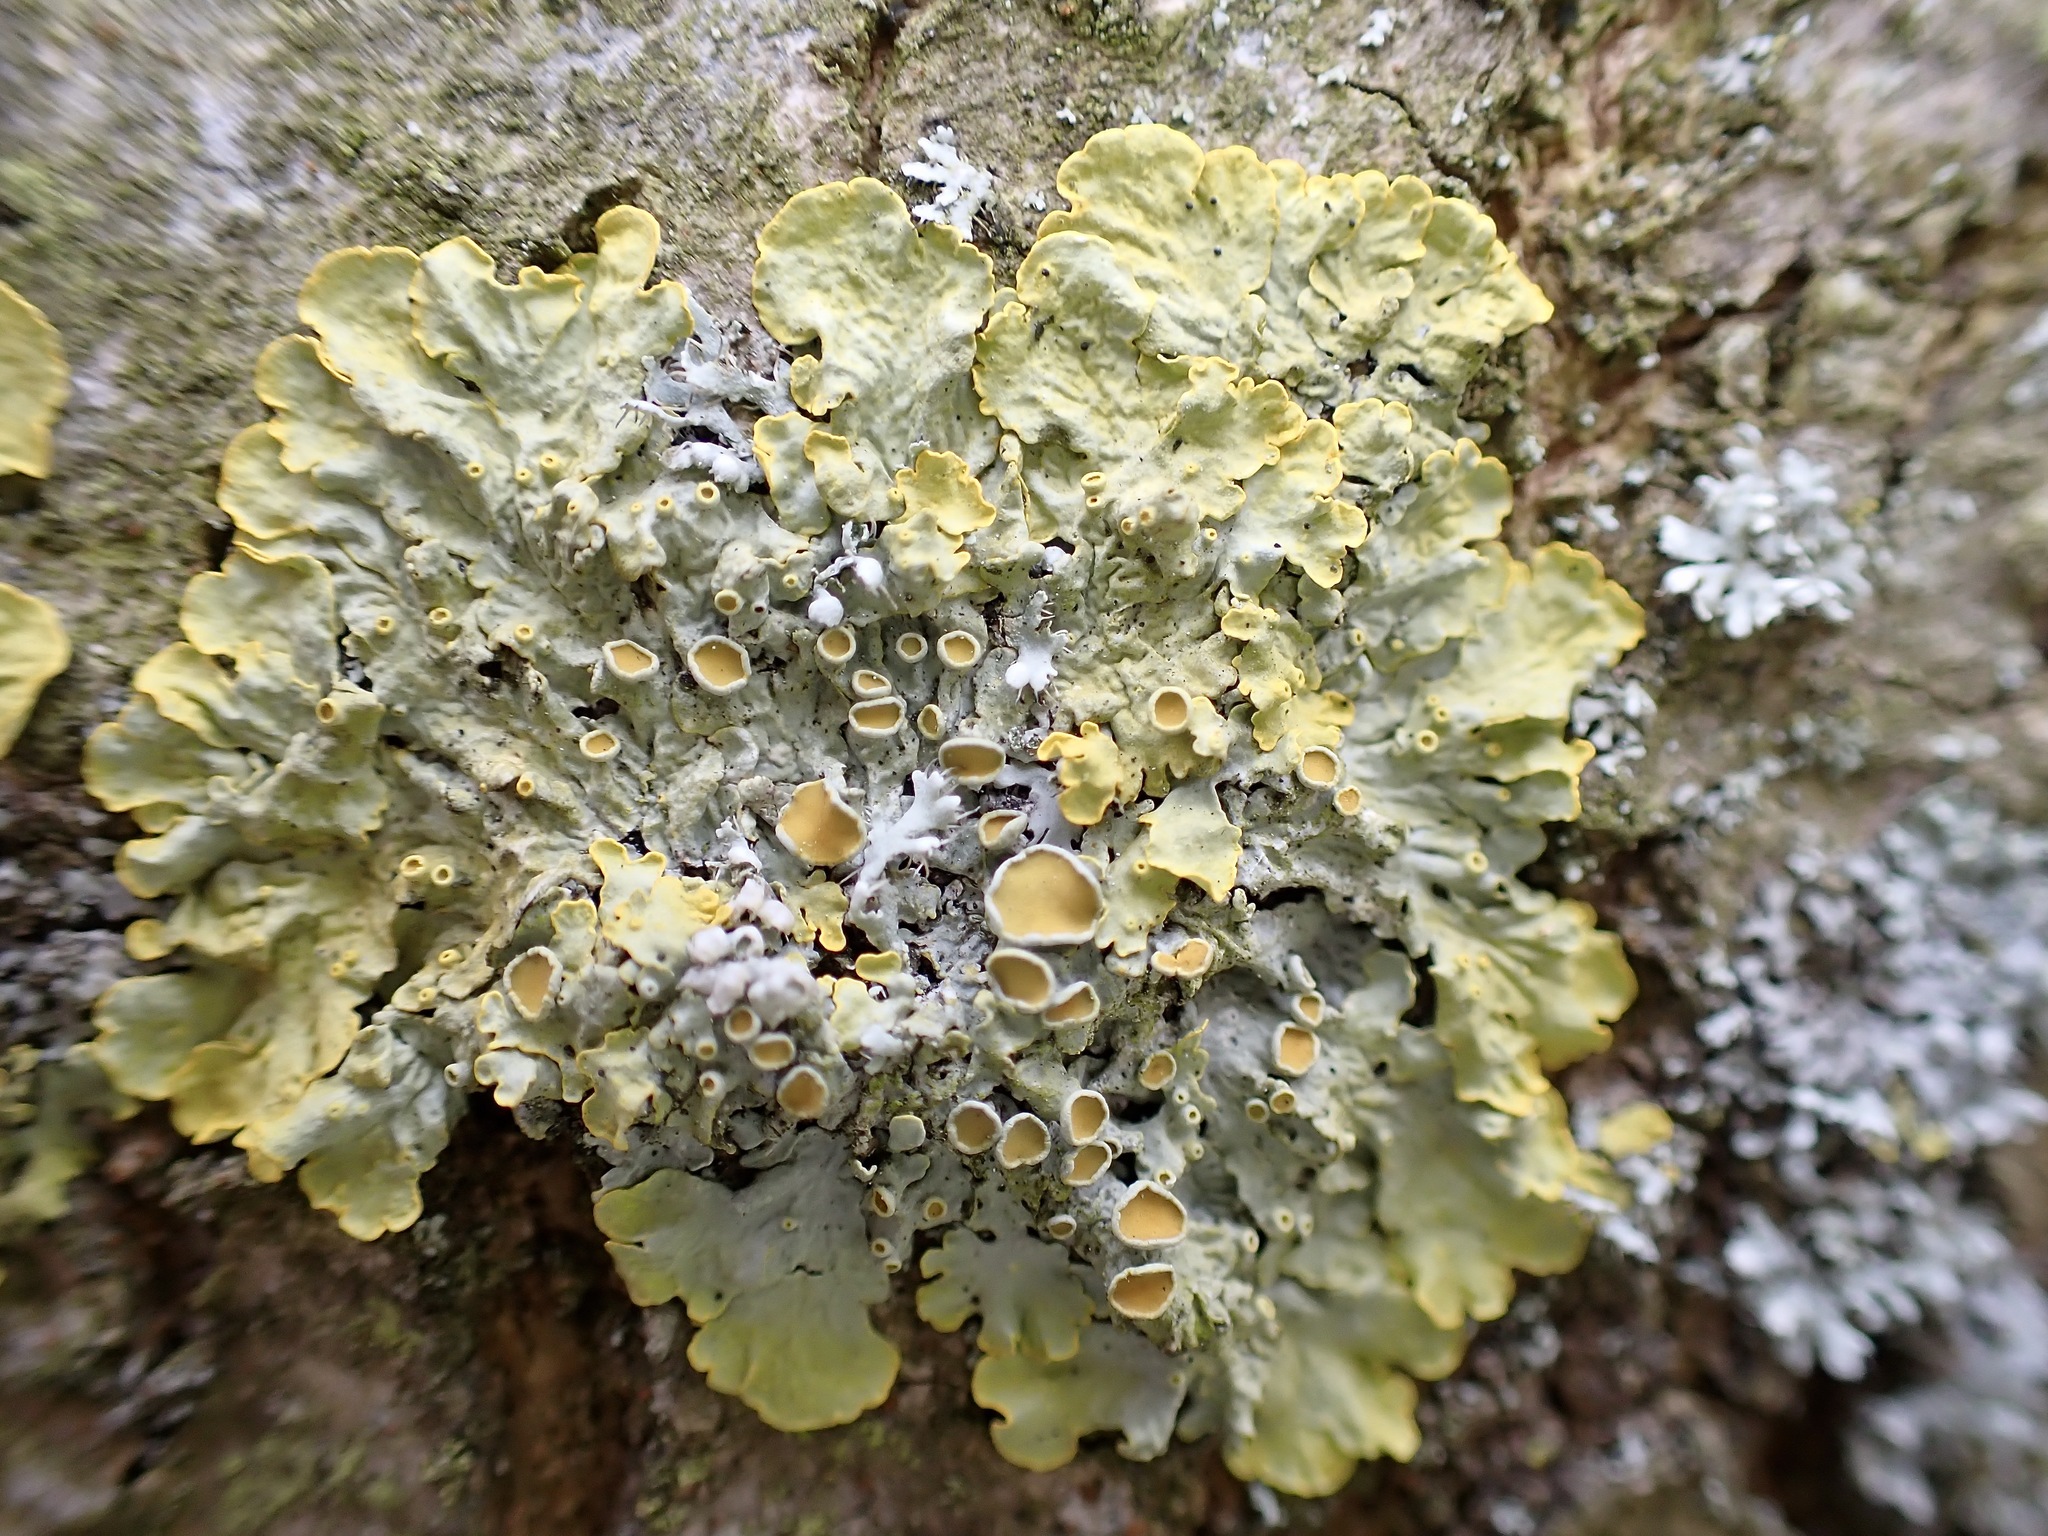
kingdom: Fungi
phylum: Ascomycota
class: Lecanoromycetes
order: Teloschistales
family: Teloschistaceae
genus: Xanthoria
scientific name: Xanthoria parietina
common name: Common orange lichen
